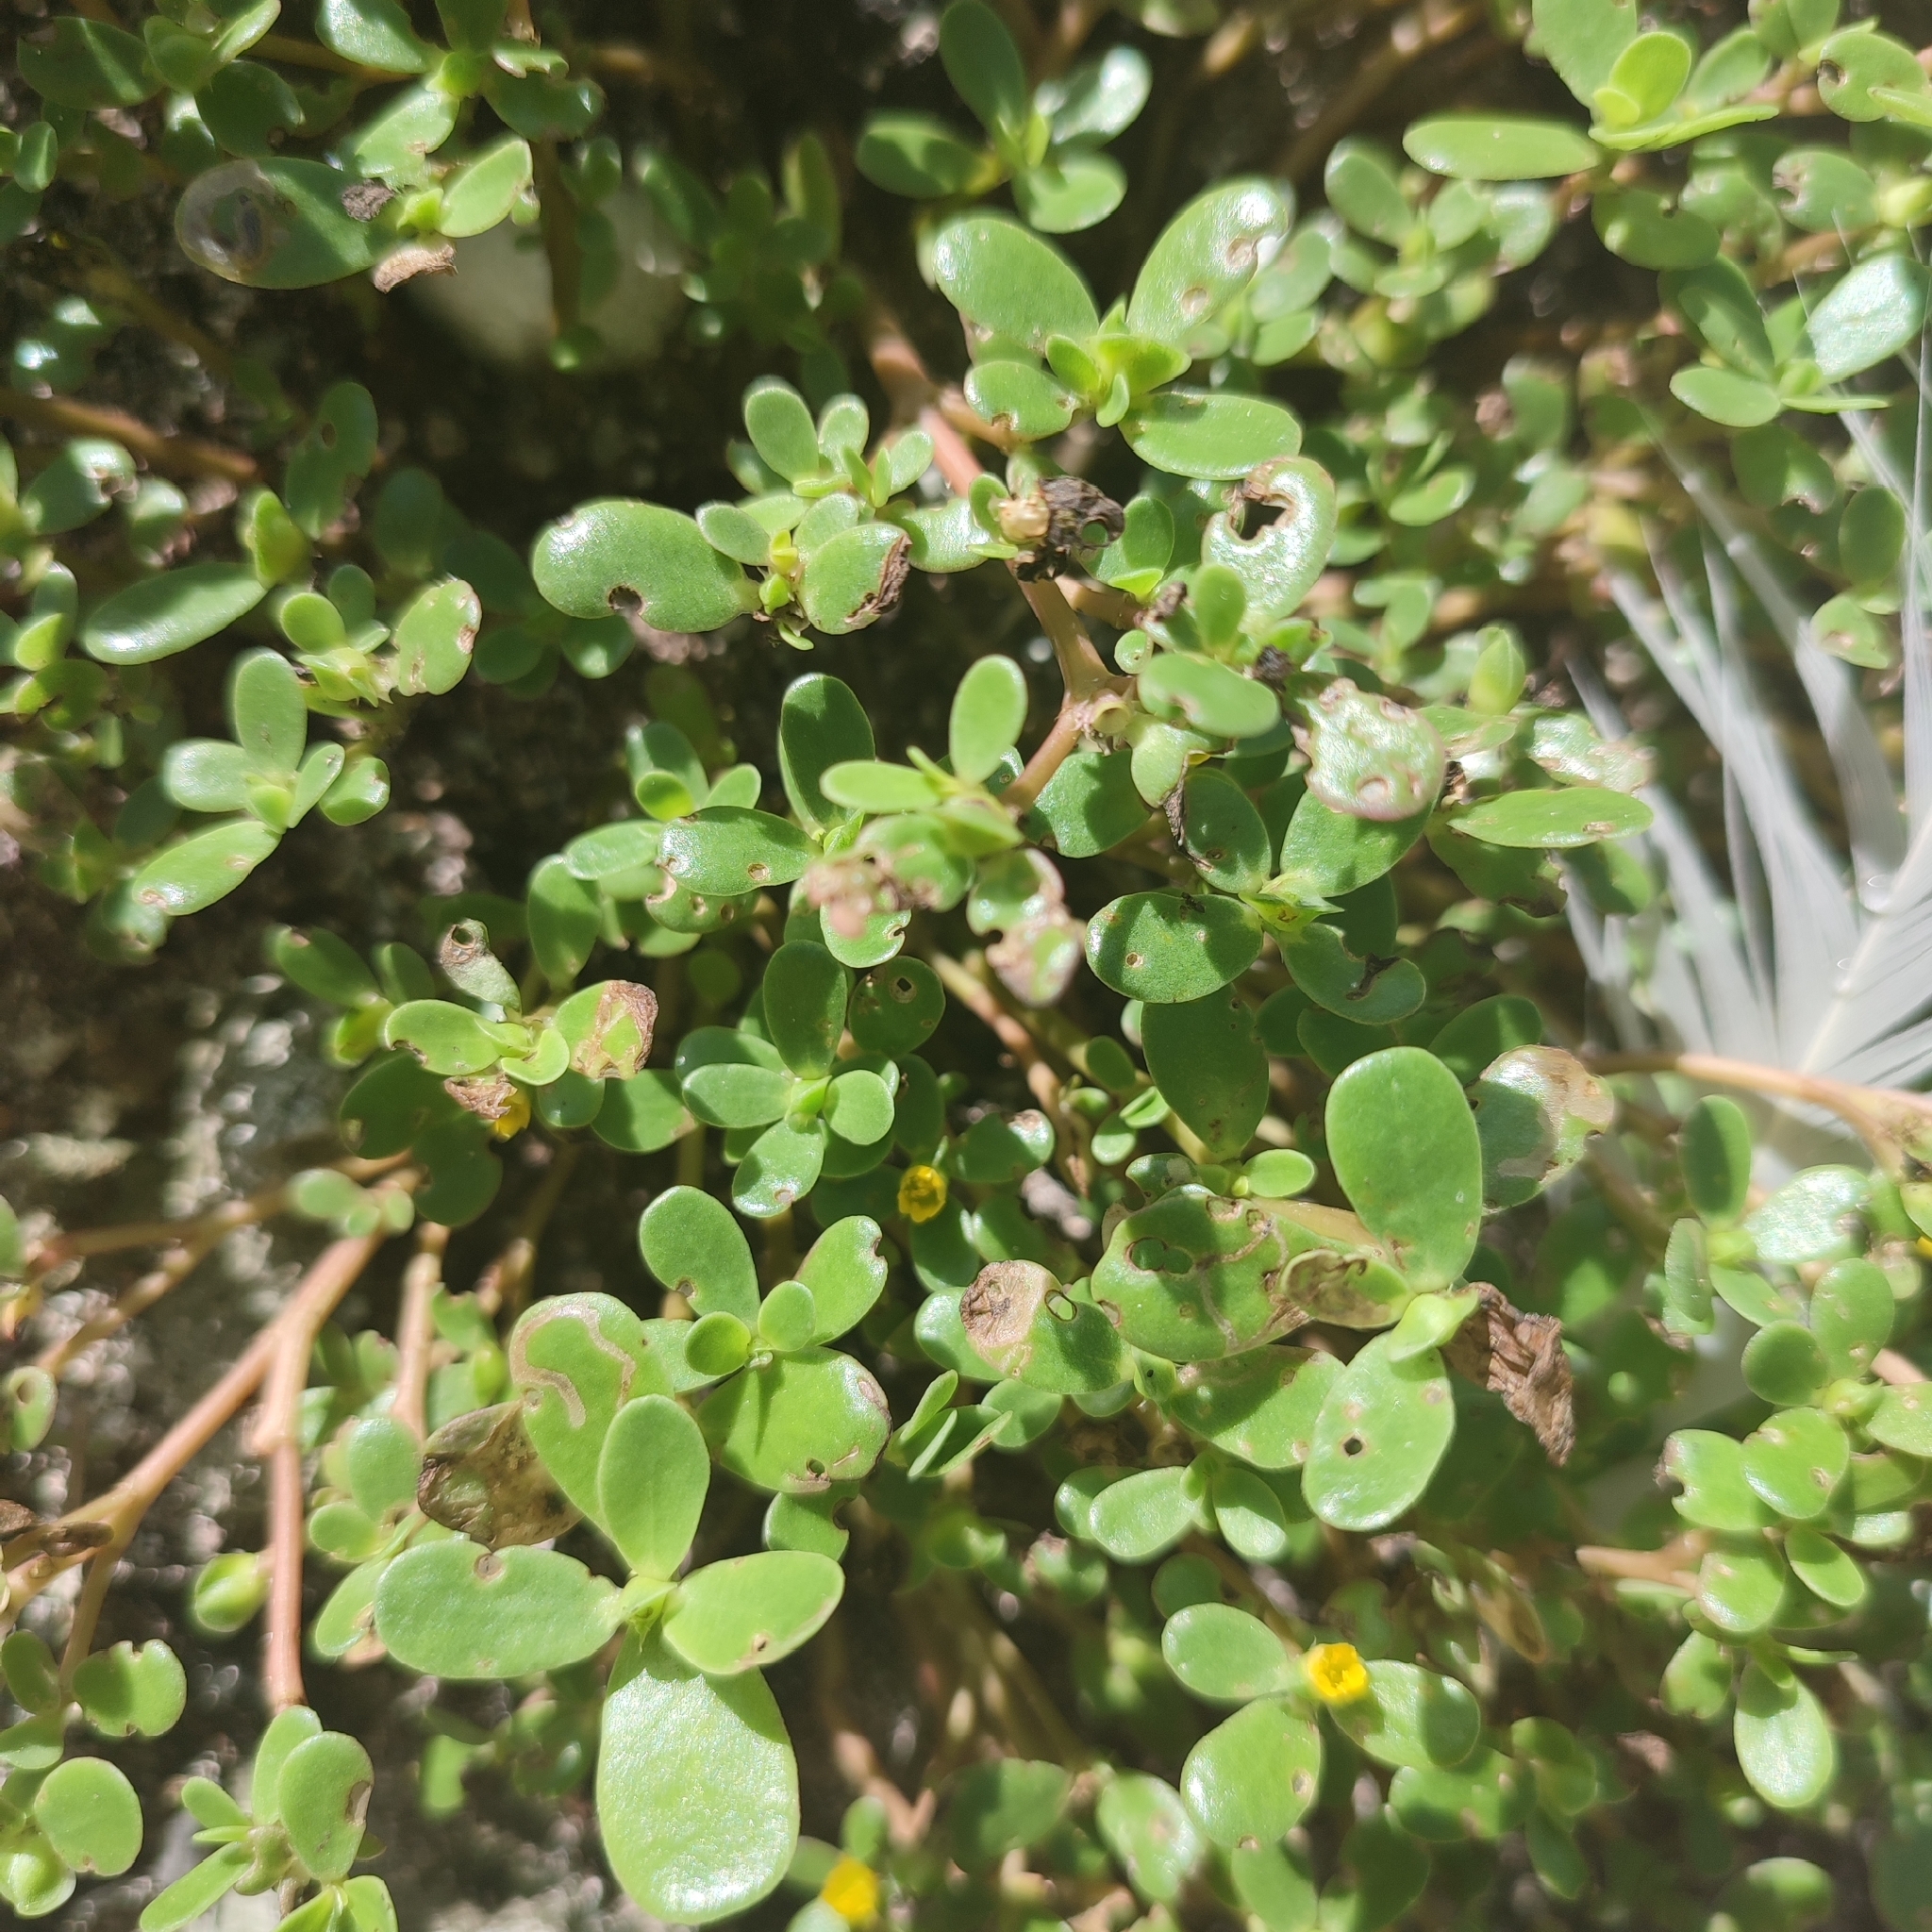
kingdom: Plantae
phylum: Tracheophyta
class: Magnoliopsida
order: Caryophyllales
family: Portulacaceae
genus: Portulaca
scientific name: Portulaca oleracea
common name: Common purslane
